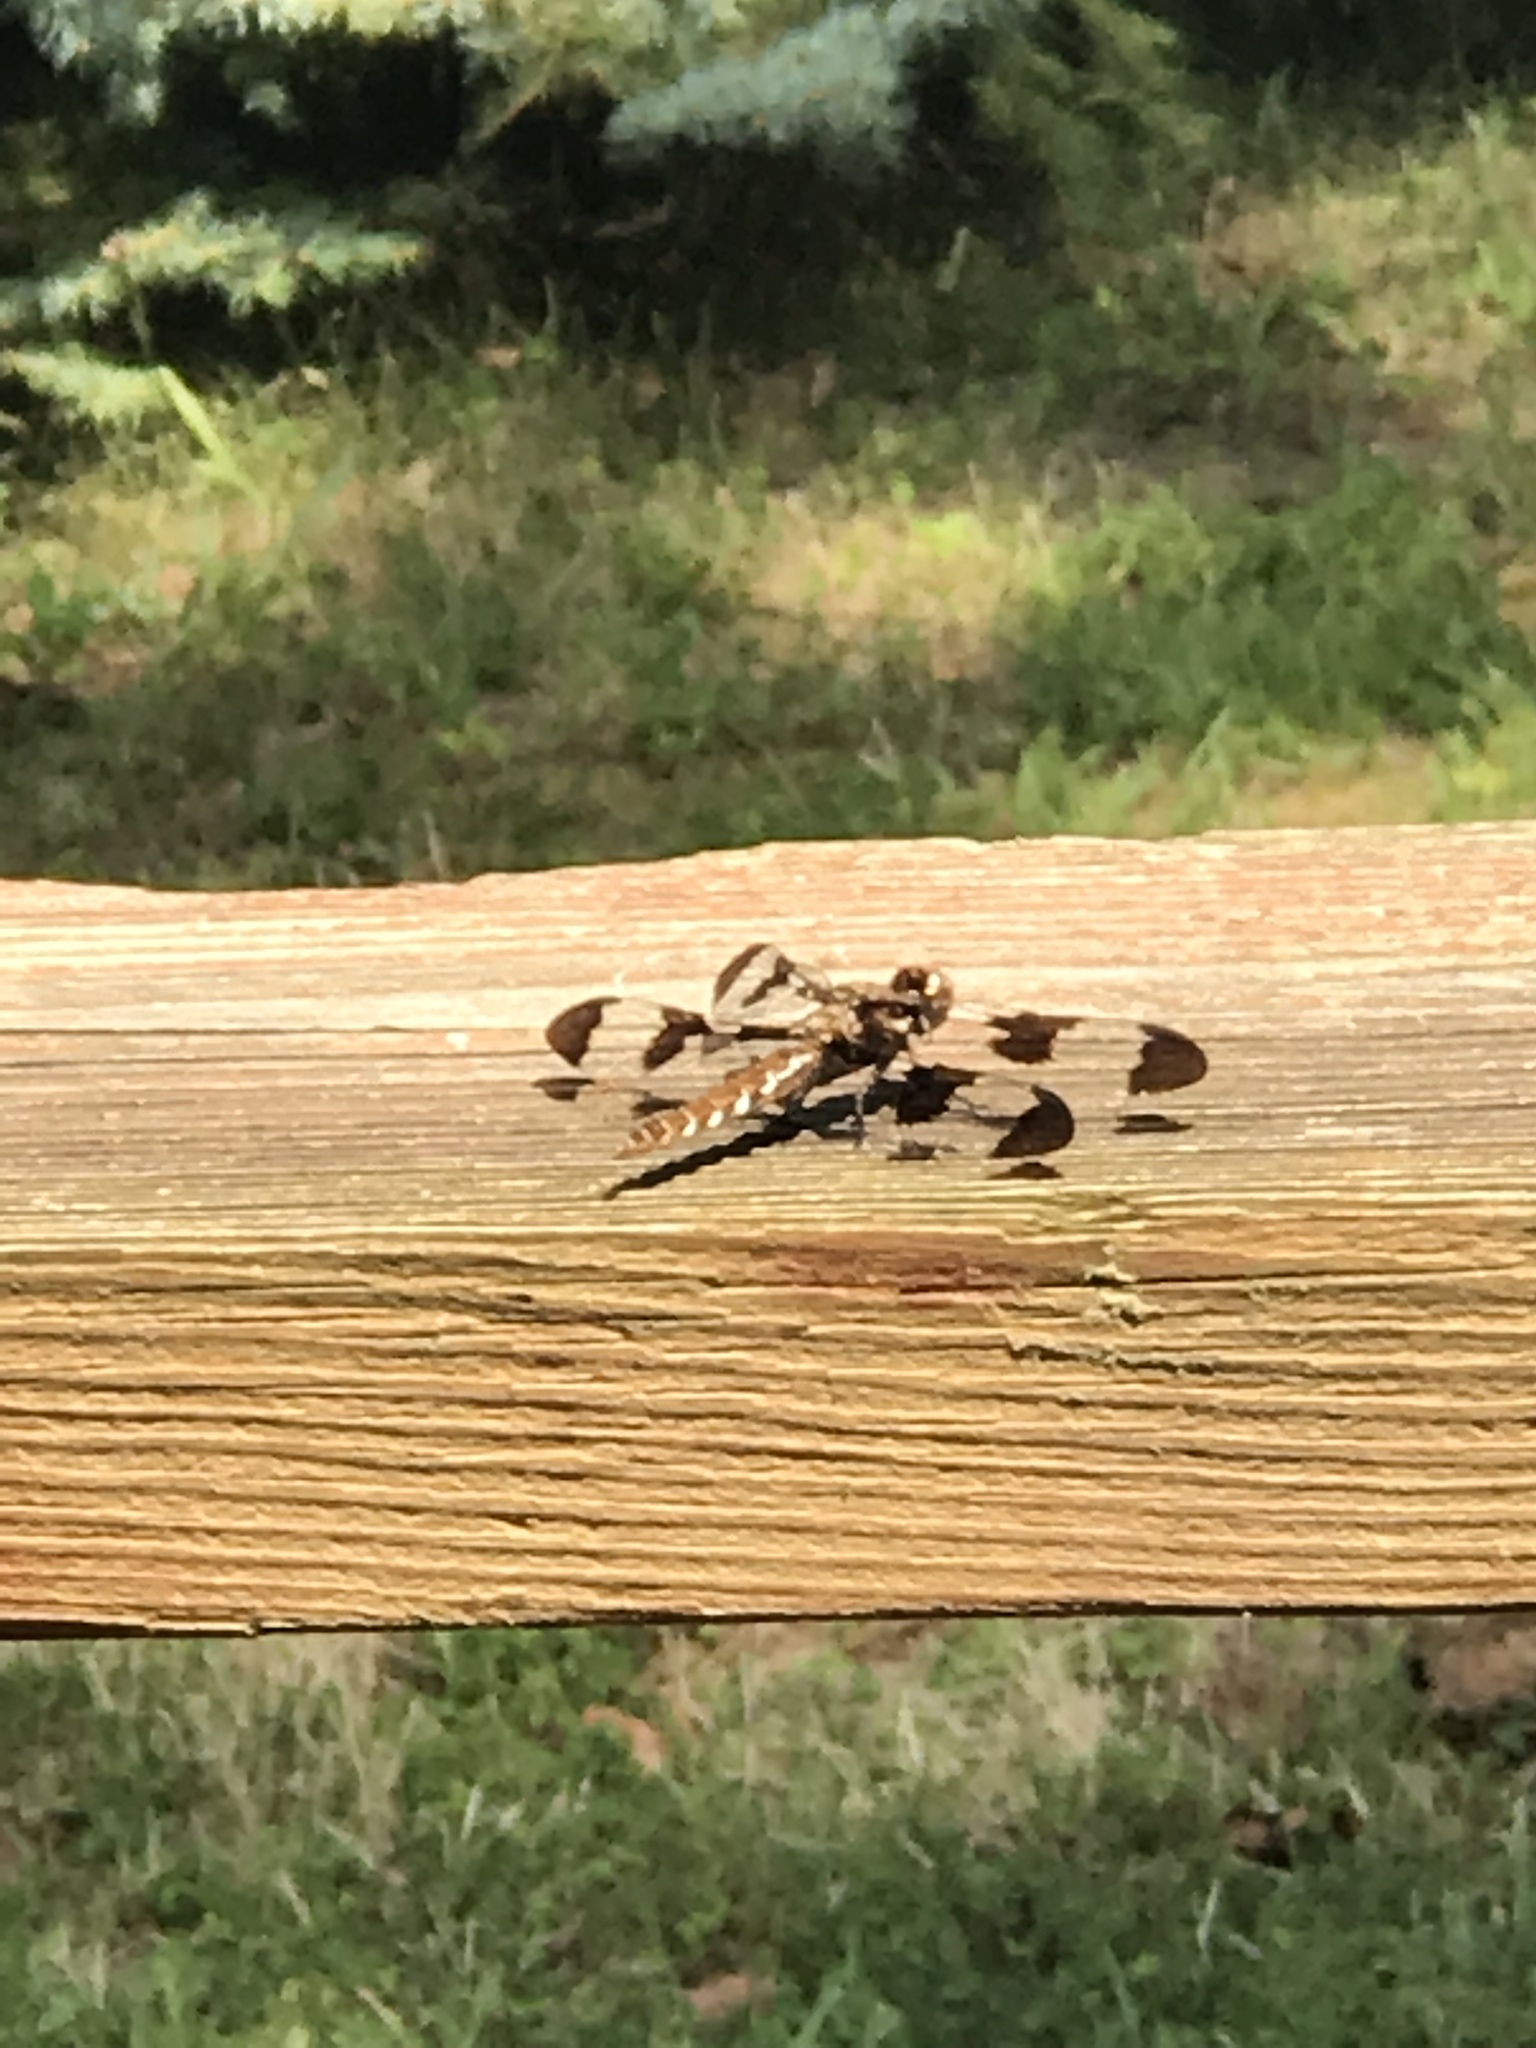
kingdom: Animalia
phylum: Arthropoda
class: Insecta
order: Odonata
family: Libellulidae
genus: Plathemis
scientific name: Plathemis lydia
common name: Common whitetail
